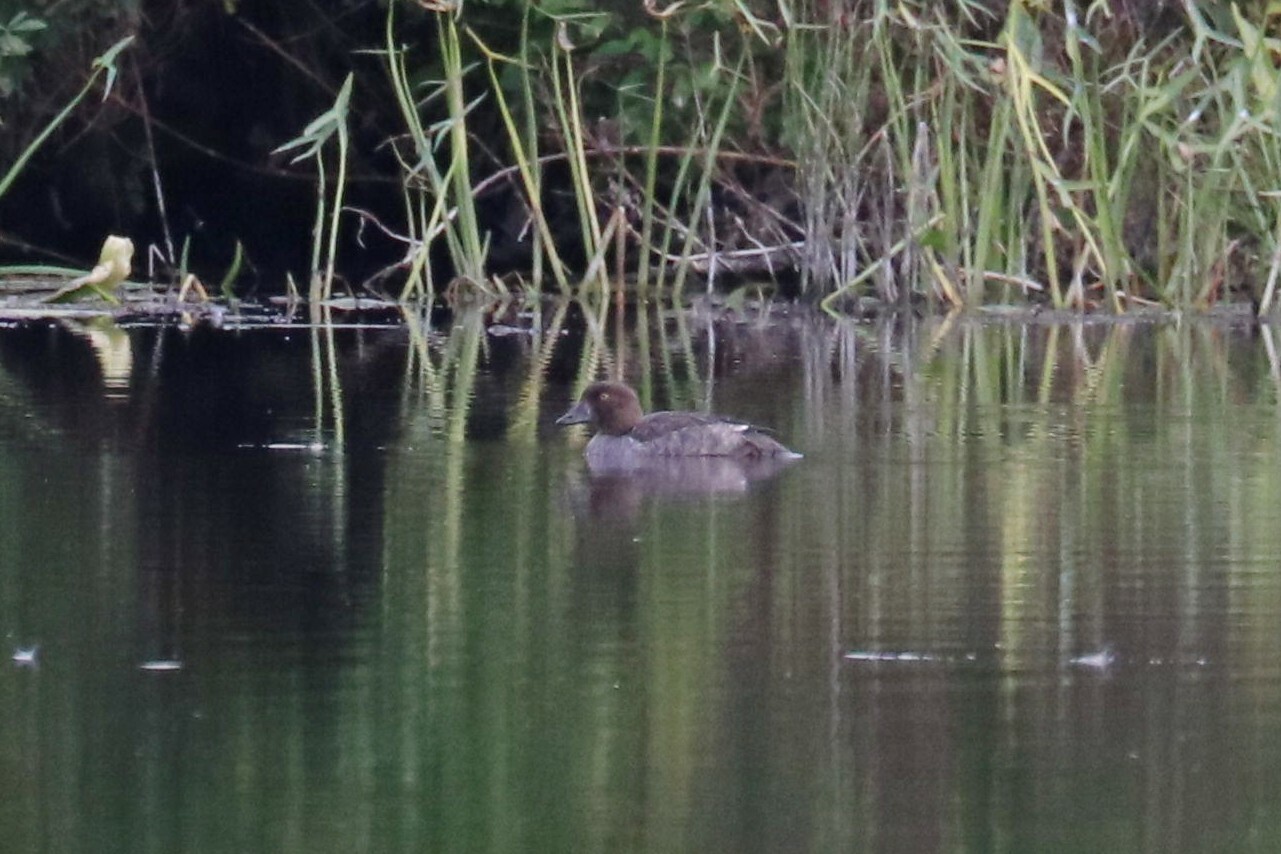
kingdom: Animalia
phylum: Chordata
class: Aves
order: Anseriformes
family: Anatidae
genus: Bucephala
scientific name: Bucephala clangula
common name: Common goldeneye
